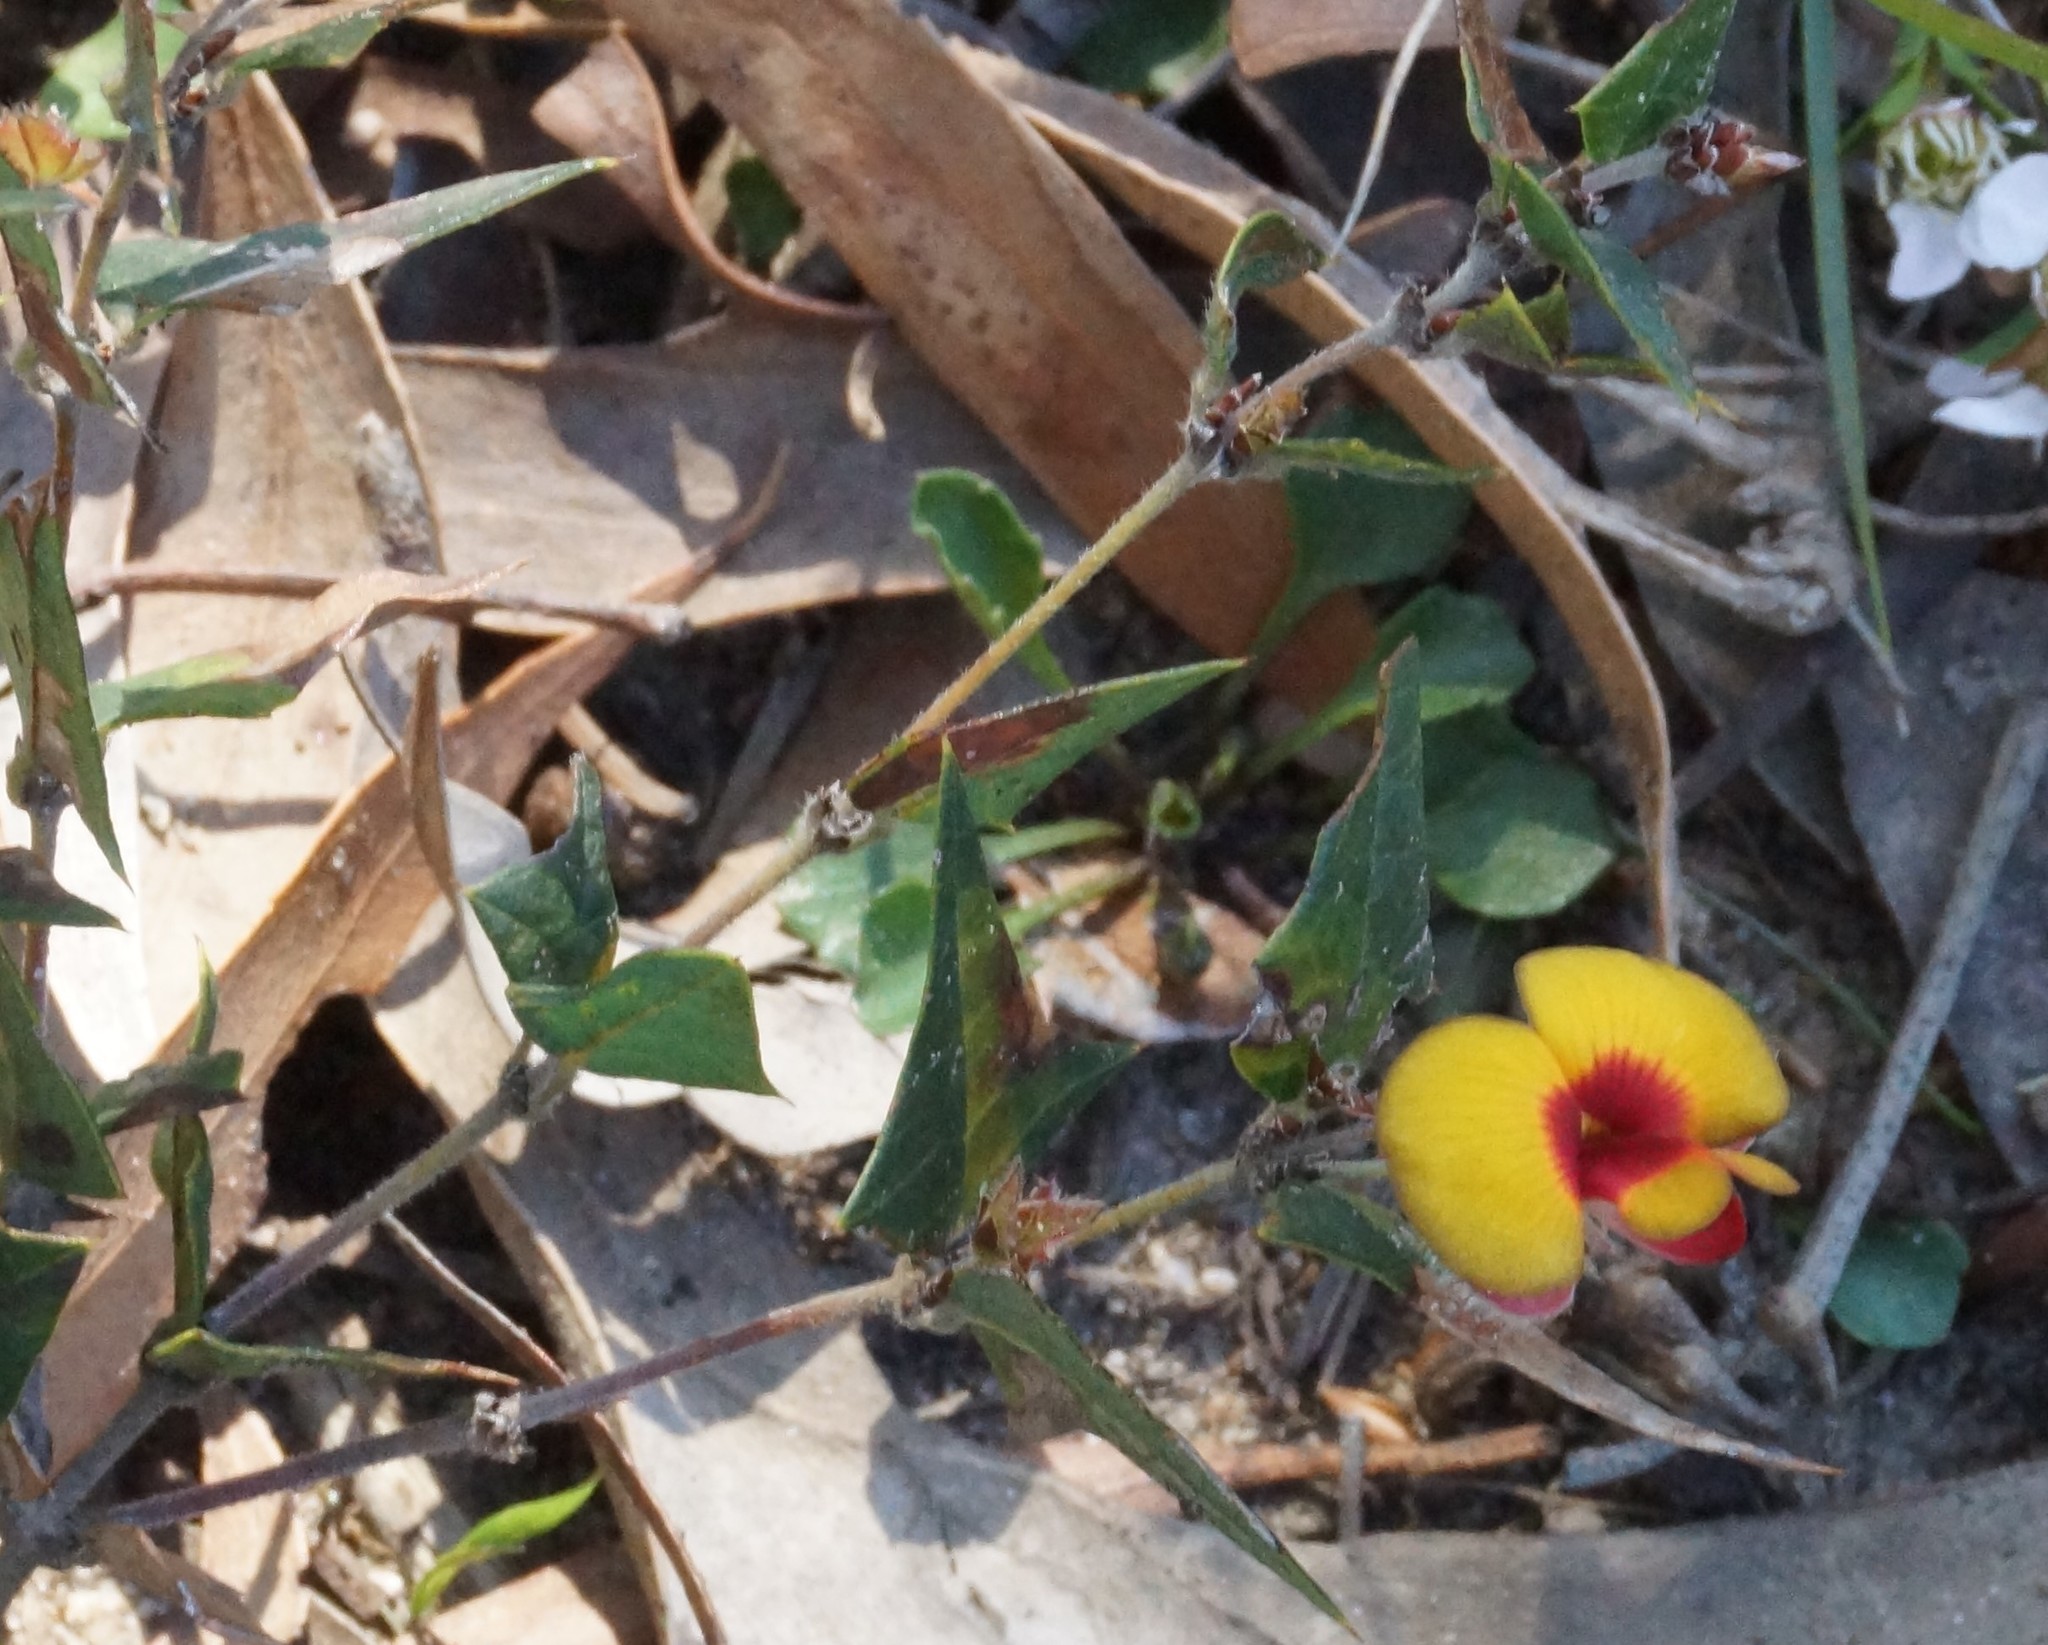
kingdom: Plantae
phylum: Tracheophyta
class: Magnoliopsida
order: Fabales
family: Fabaceae
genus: Platylobium
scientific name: Platylobium obtusangulum
